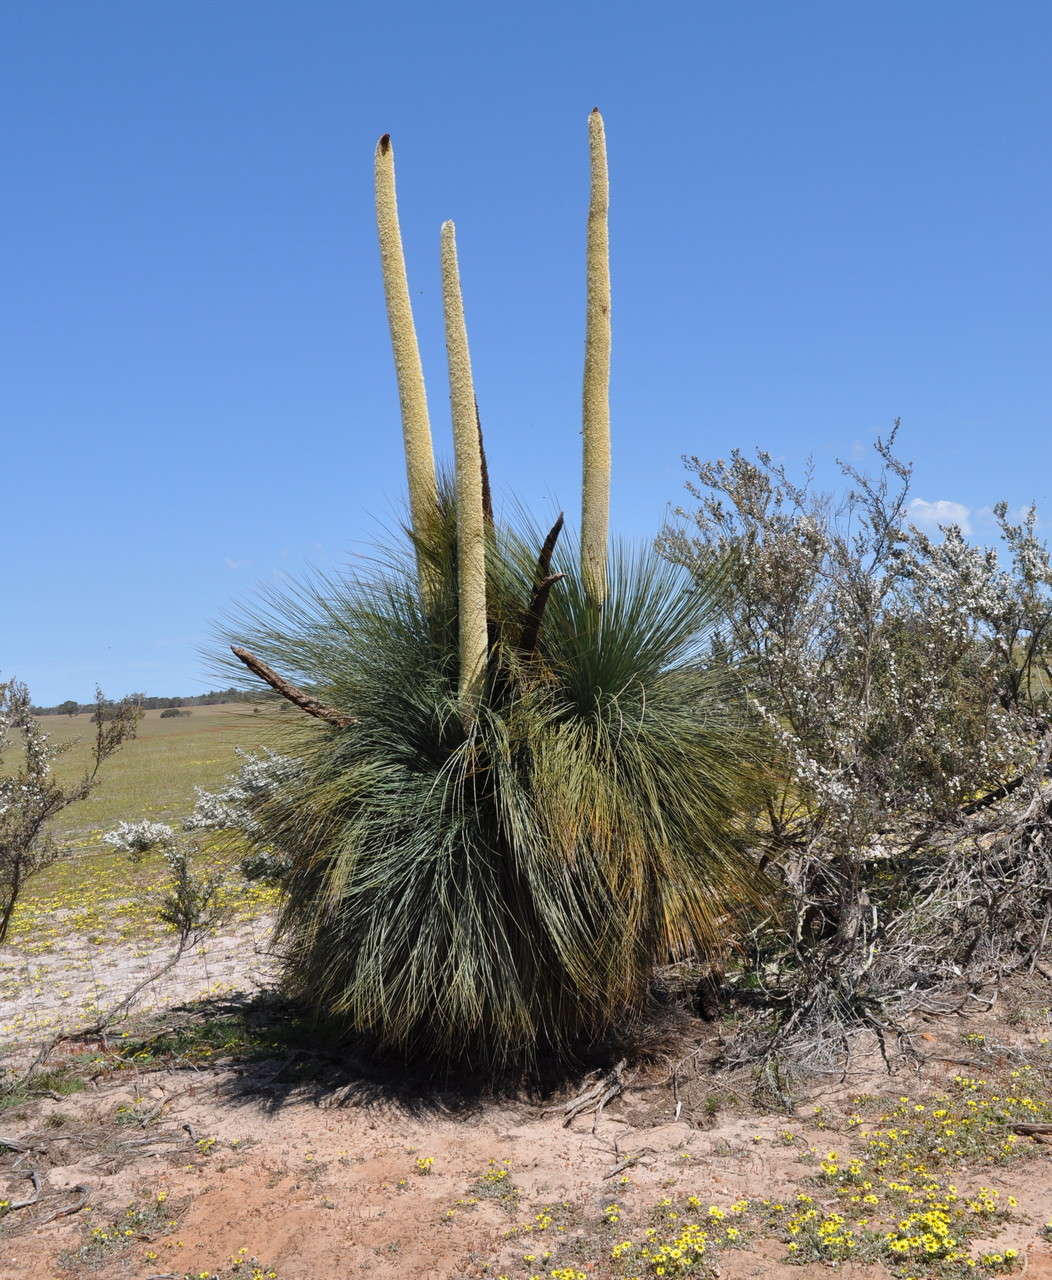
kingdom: Plantae
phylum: Tracheophyta
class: Liliopsida
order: Asparagales
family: Asphodelaceae
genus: Xanthorrhoea
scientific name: Xanthorrhoea australis
